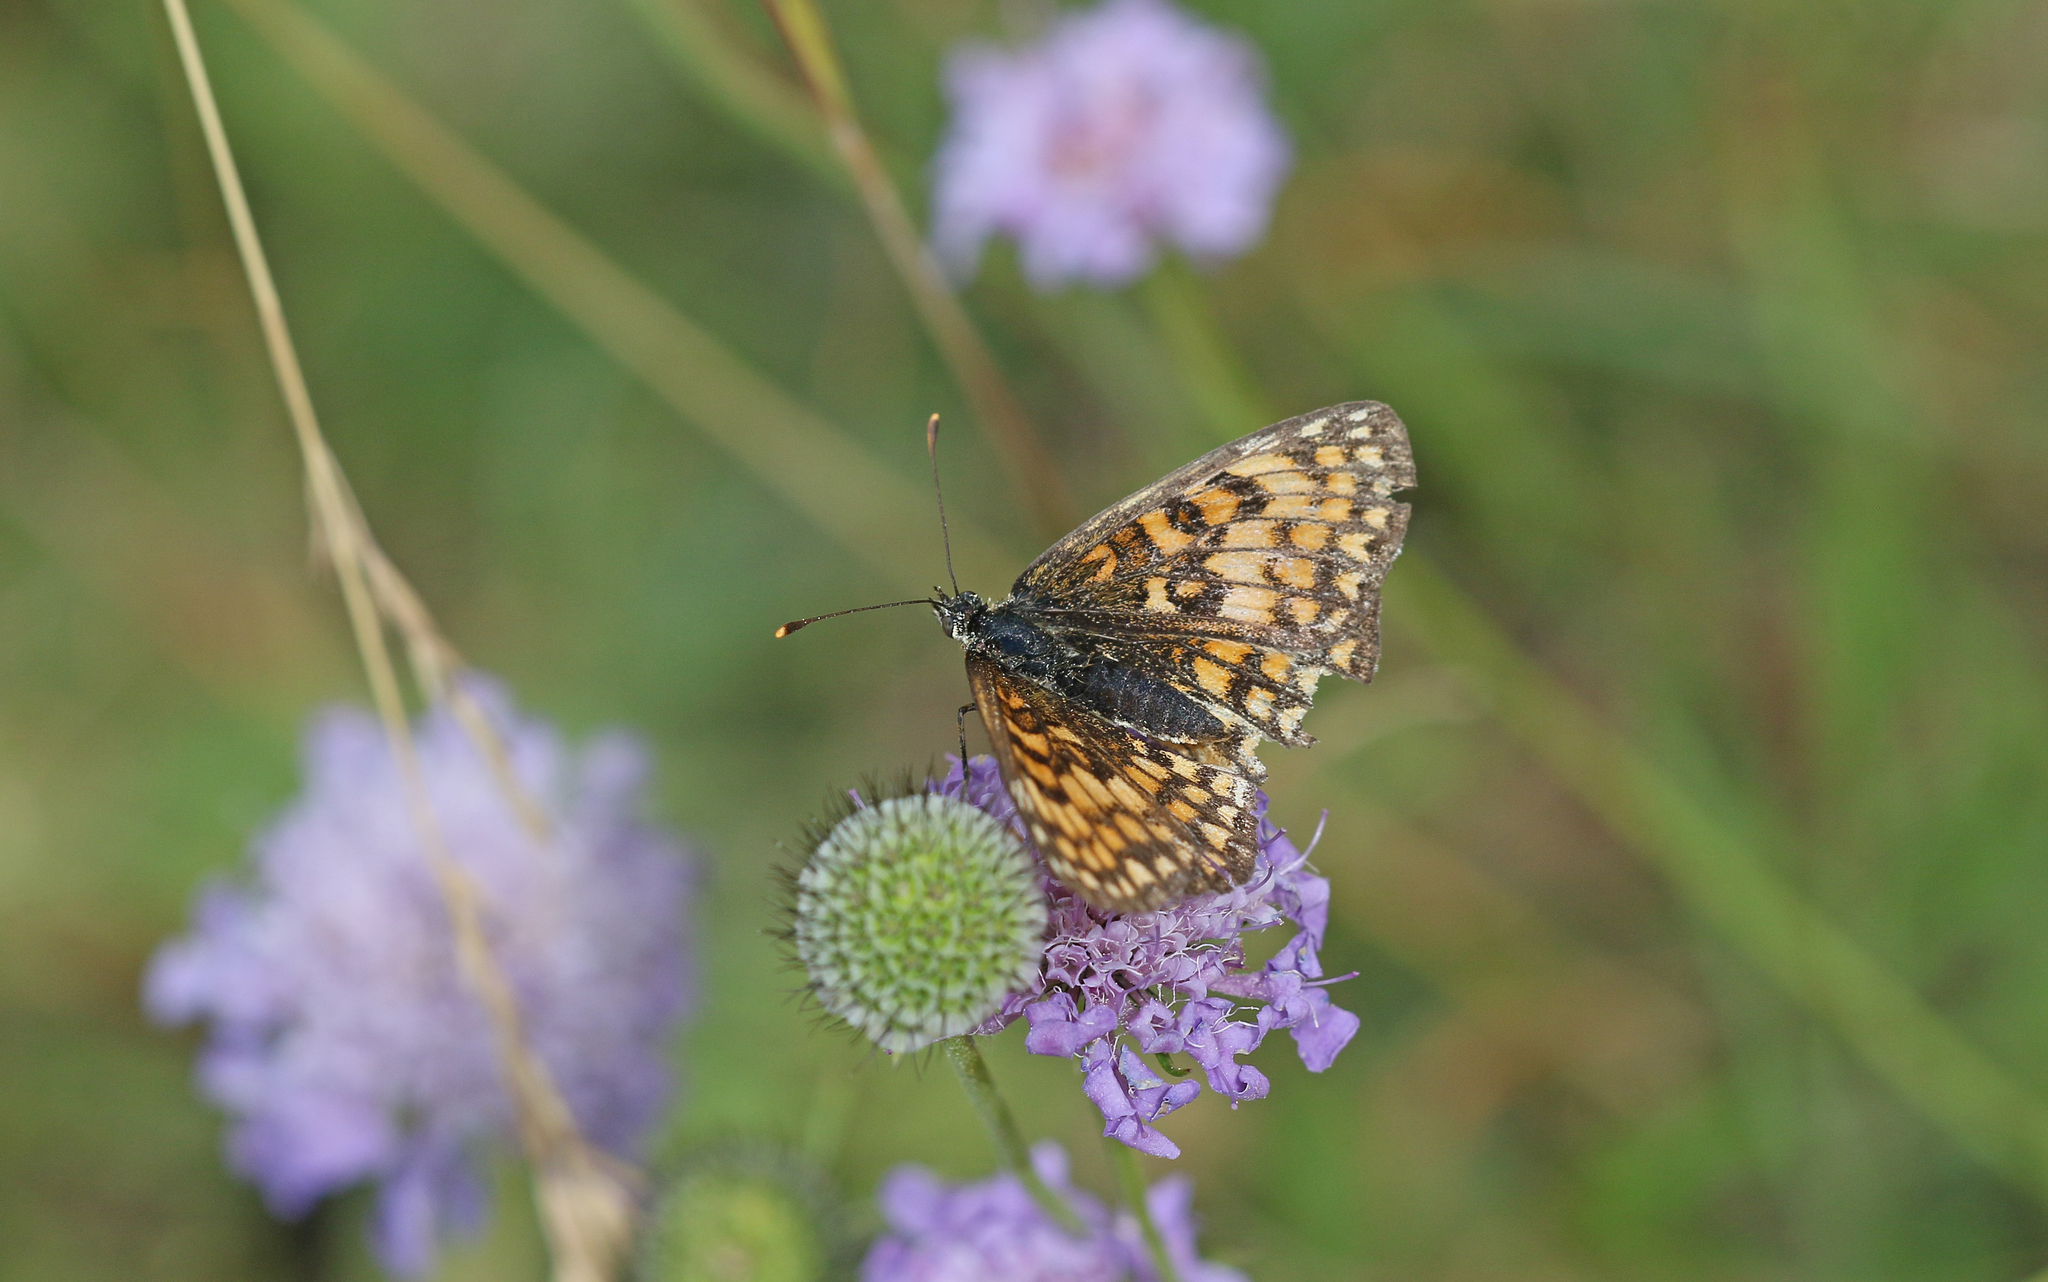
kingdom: Animalia
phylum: Arthropoda
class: Insecta
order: Lepidoptera
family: Nymphalidae
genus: Mellicta
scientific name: Mellicta athalia
